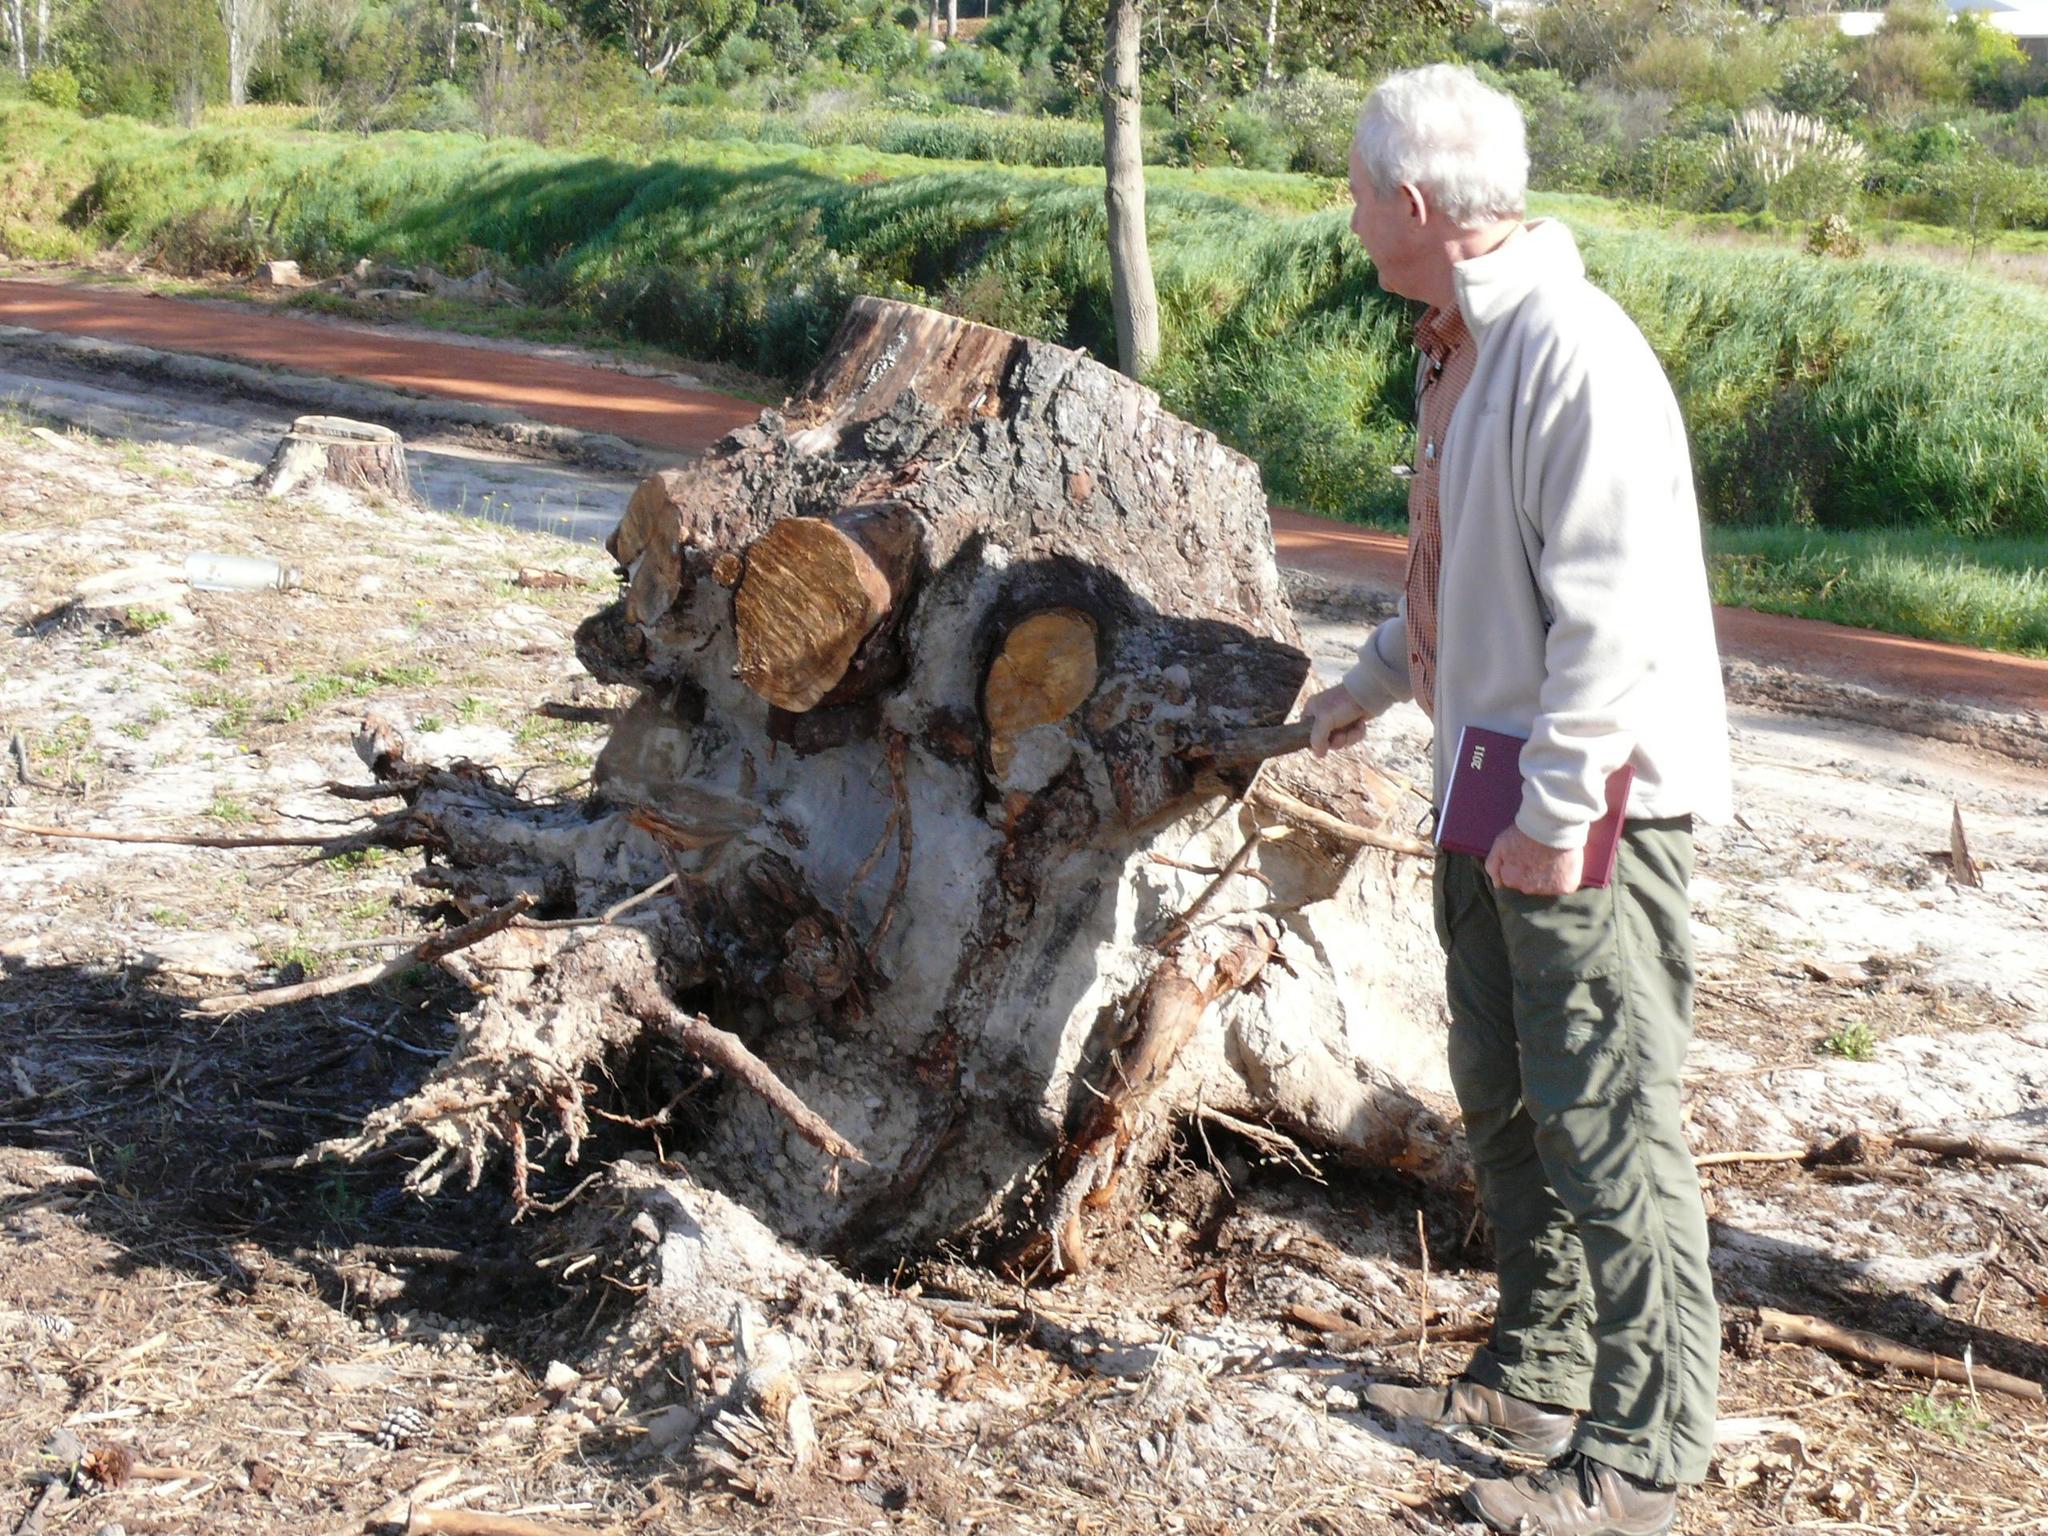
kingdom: Plantae
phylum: Tracheophyta
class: Pinopsida
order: Pinales
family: Pinaceae
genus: Pinus
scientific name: Pinus radiata
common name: Monterey pine
